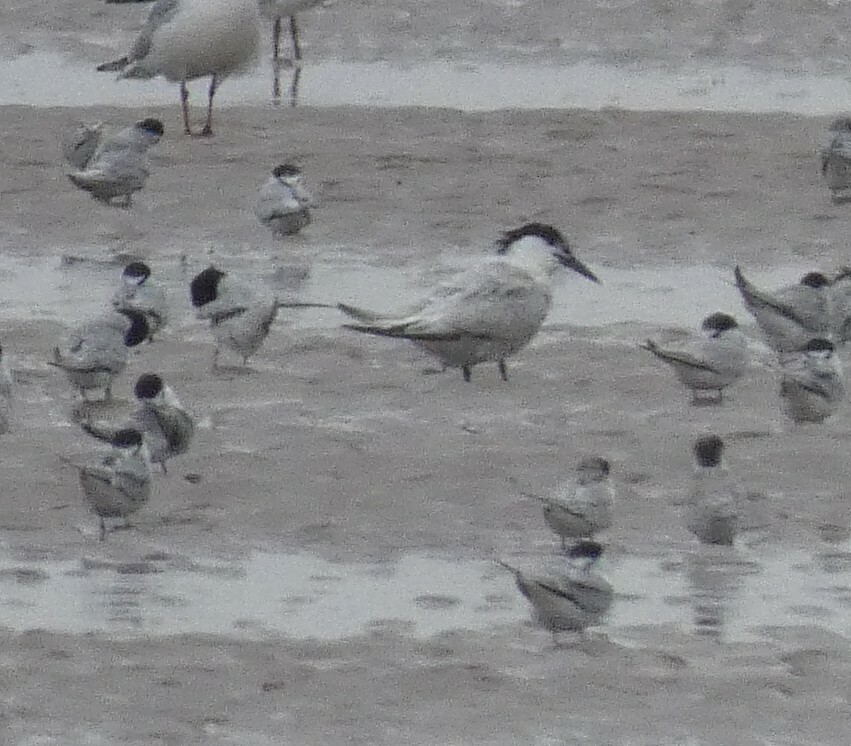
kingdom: Animalia
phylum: Chordata
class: Aves
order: Charadriiformes
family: Laridae
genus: Thalasseus
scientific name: Thalasseus sandvicensis
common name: Sandwich tern
